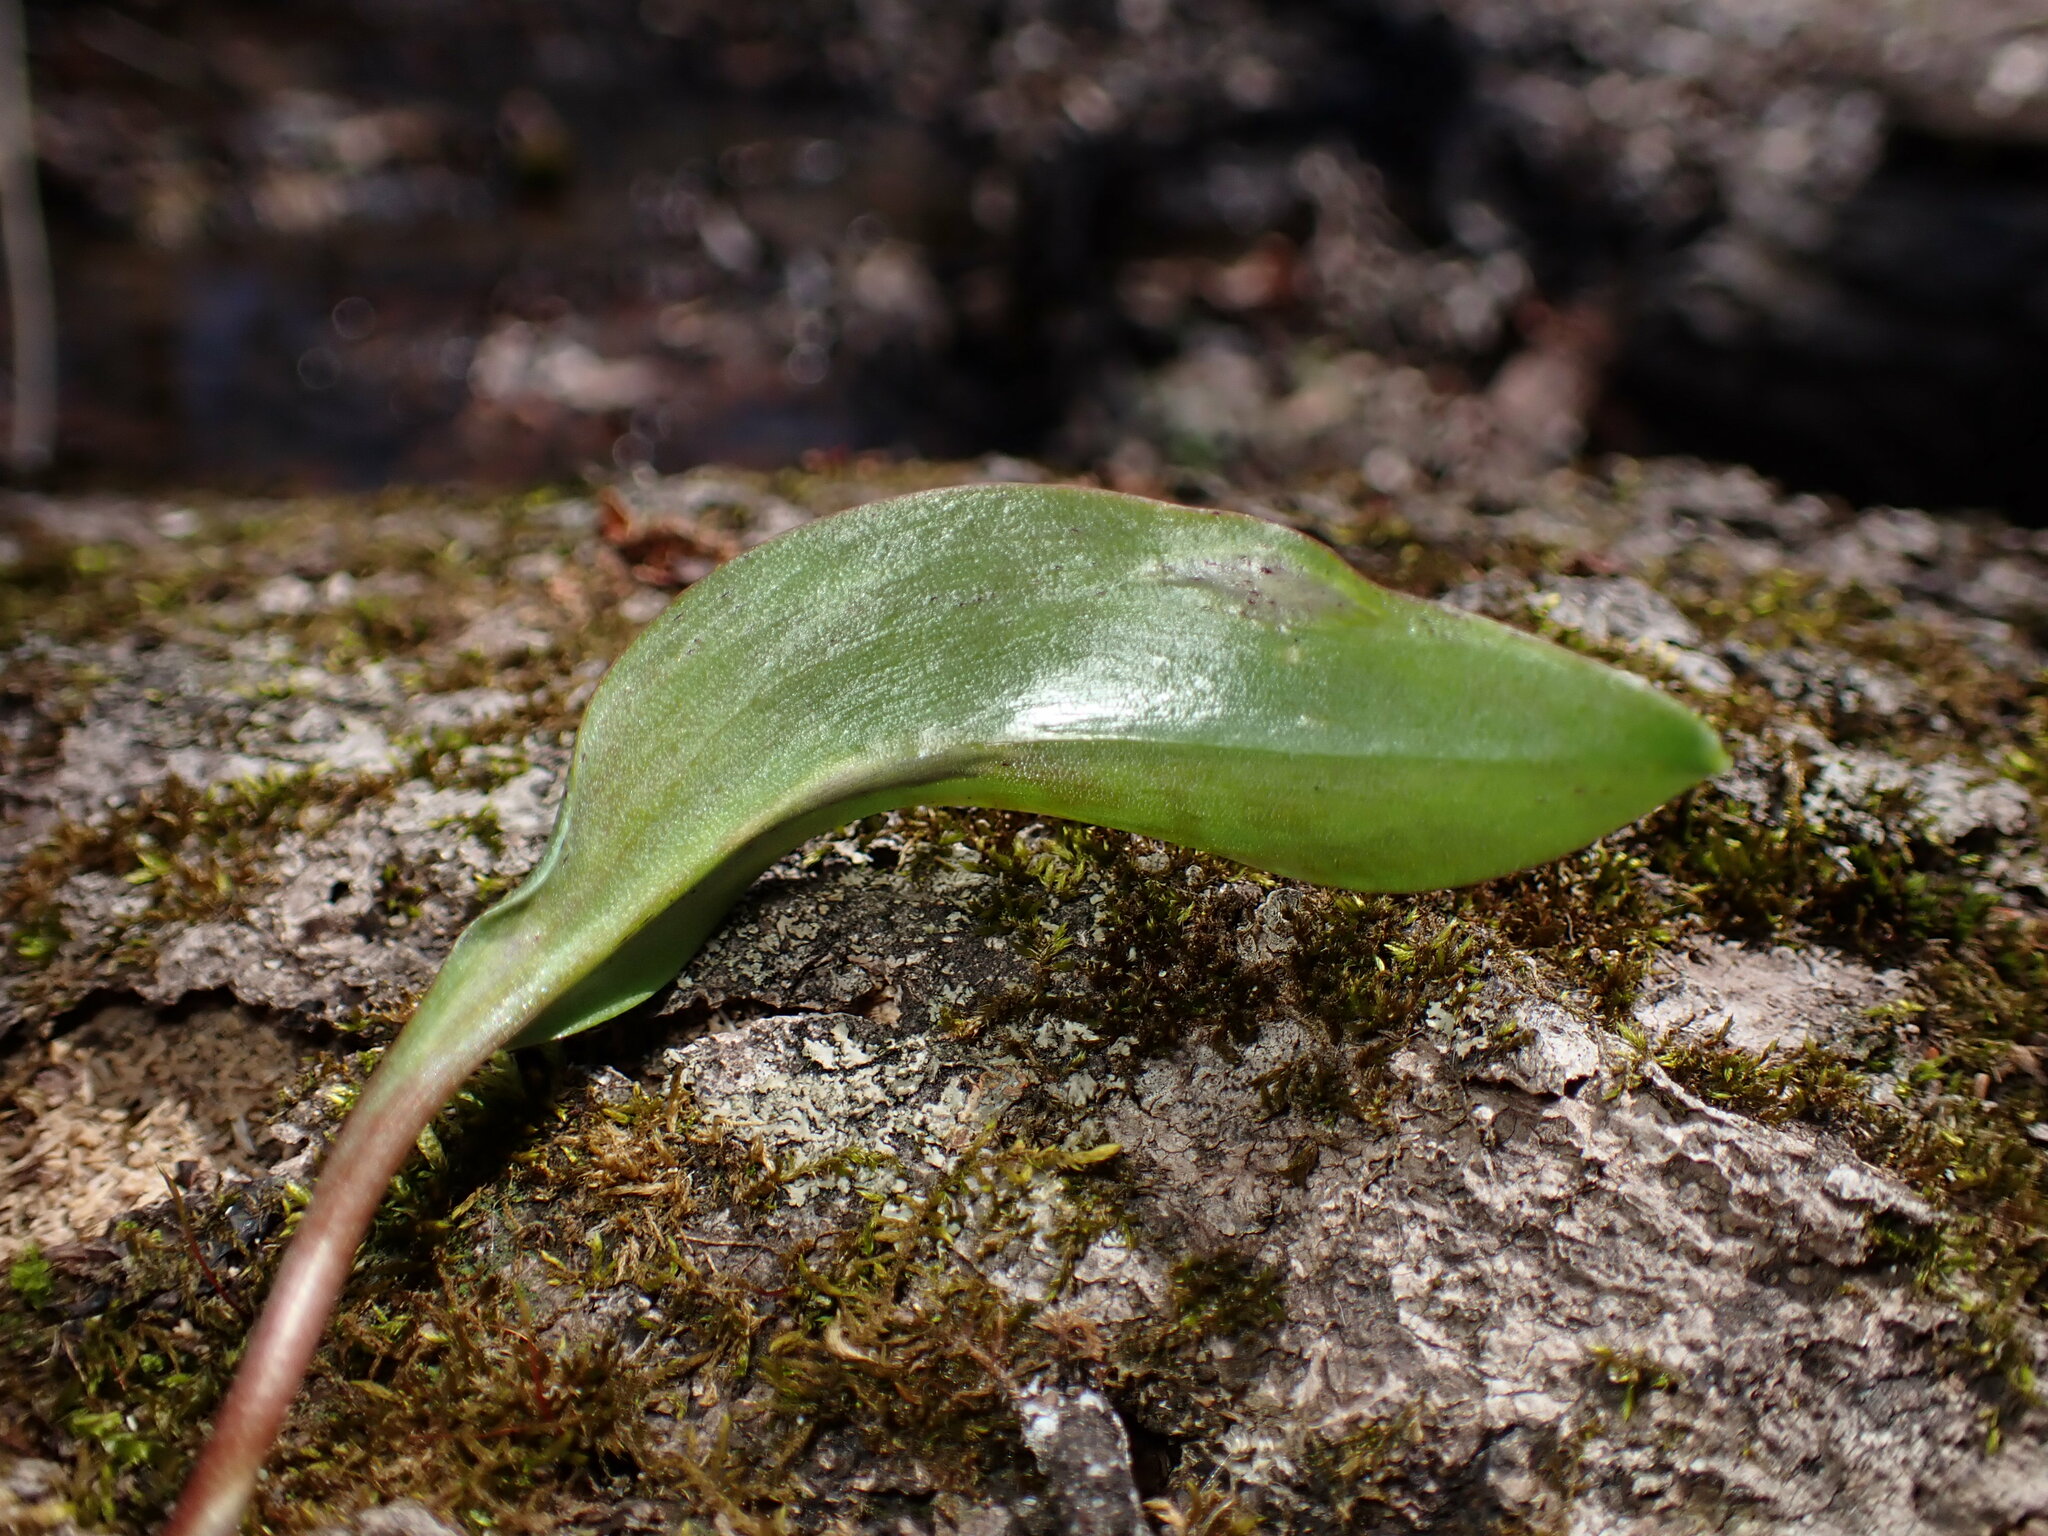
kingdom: Fungi
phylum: Basidiomycota
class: Ustilaginomycetes
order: Urocystidales
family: Urocystidaceae
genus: Vankya
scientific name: Vankya heufleri
